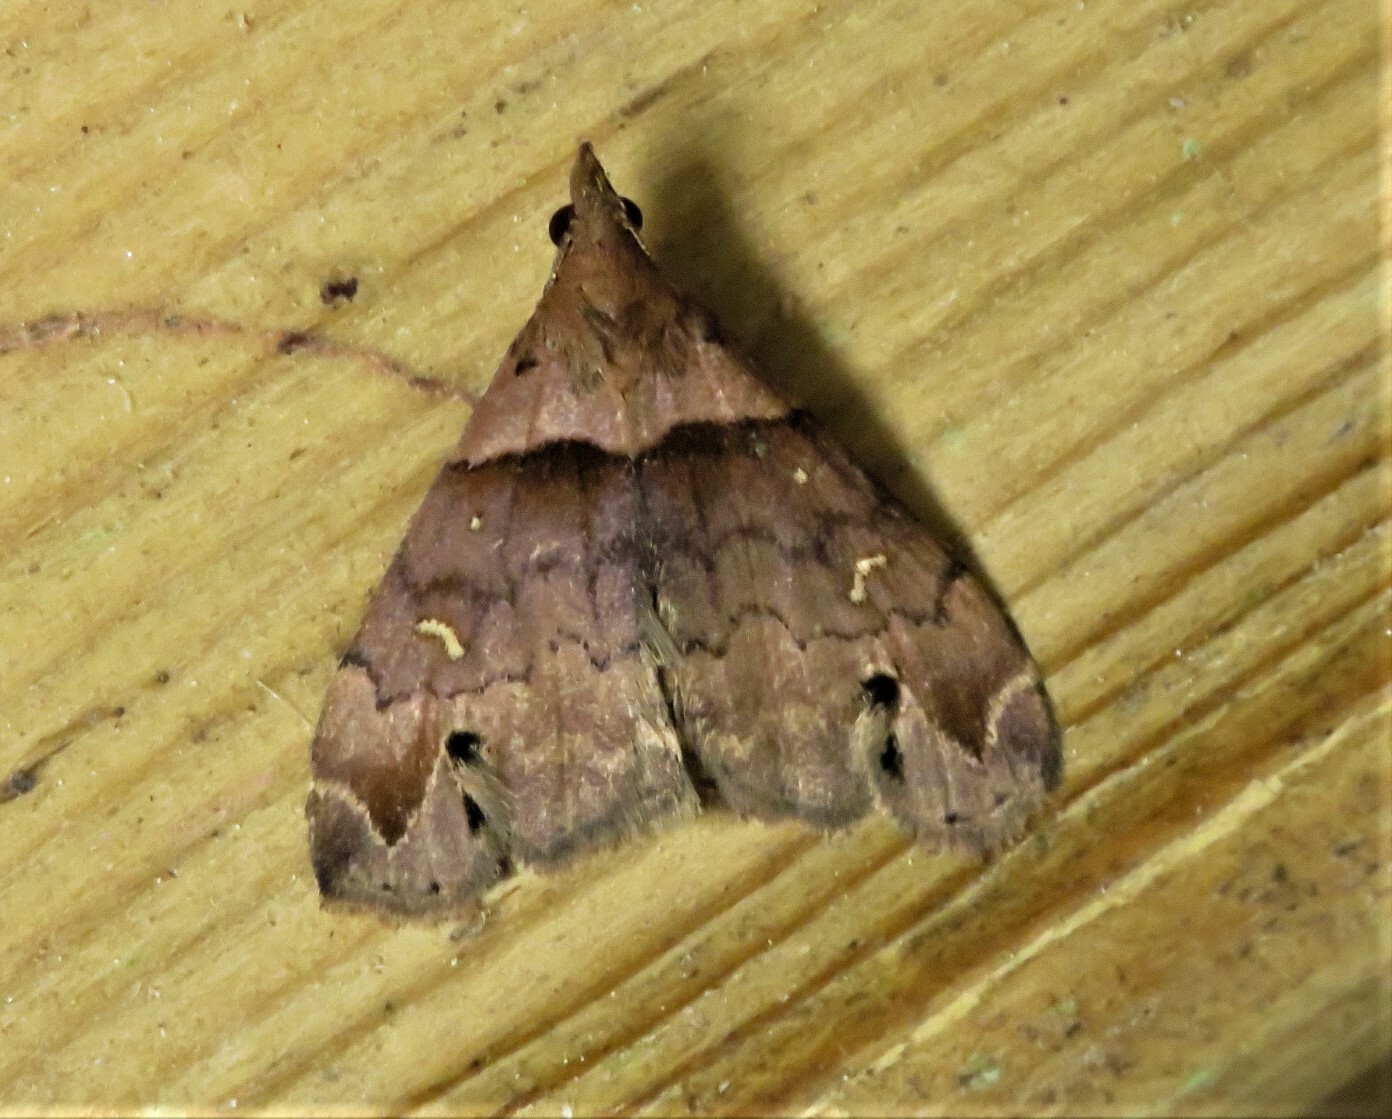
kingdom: Animalia
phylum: Arthropoda
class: Insecta
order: Lepidoptera
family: Erebidae
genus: Lascoria
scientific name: Lascoria ambigualis
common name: Ambiguous moth
